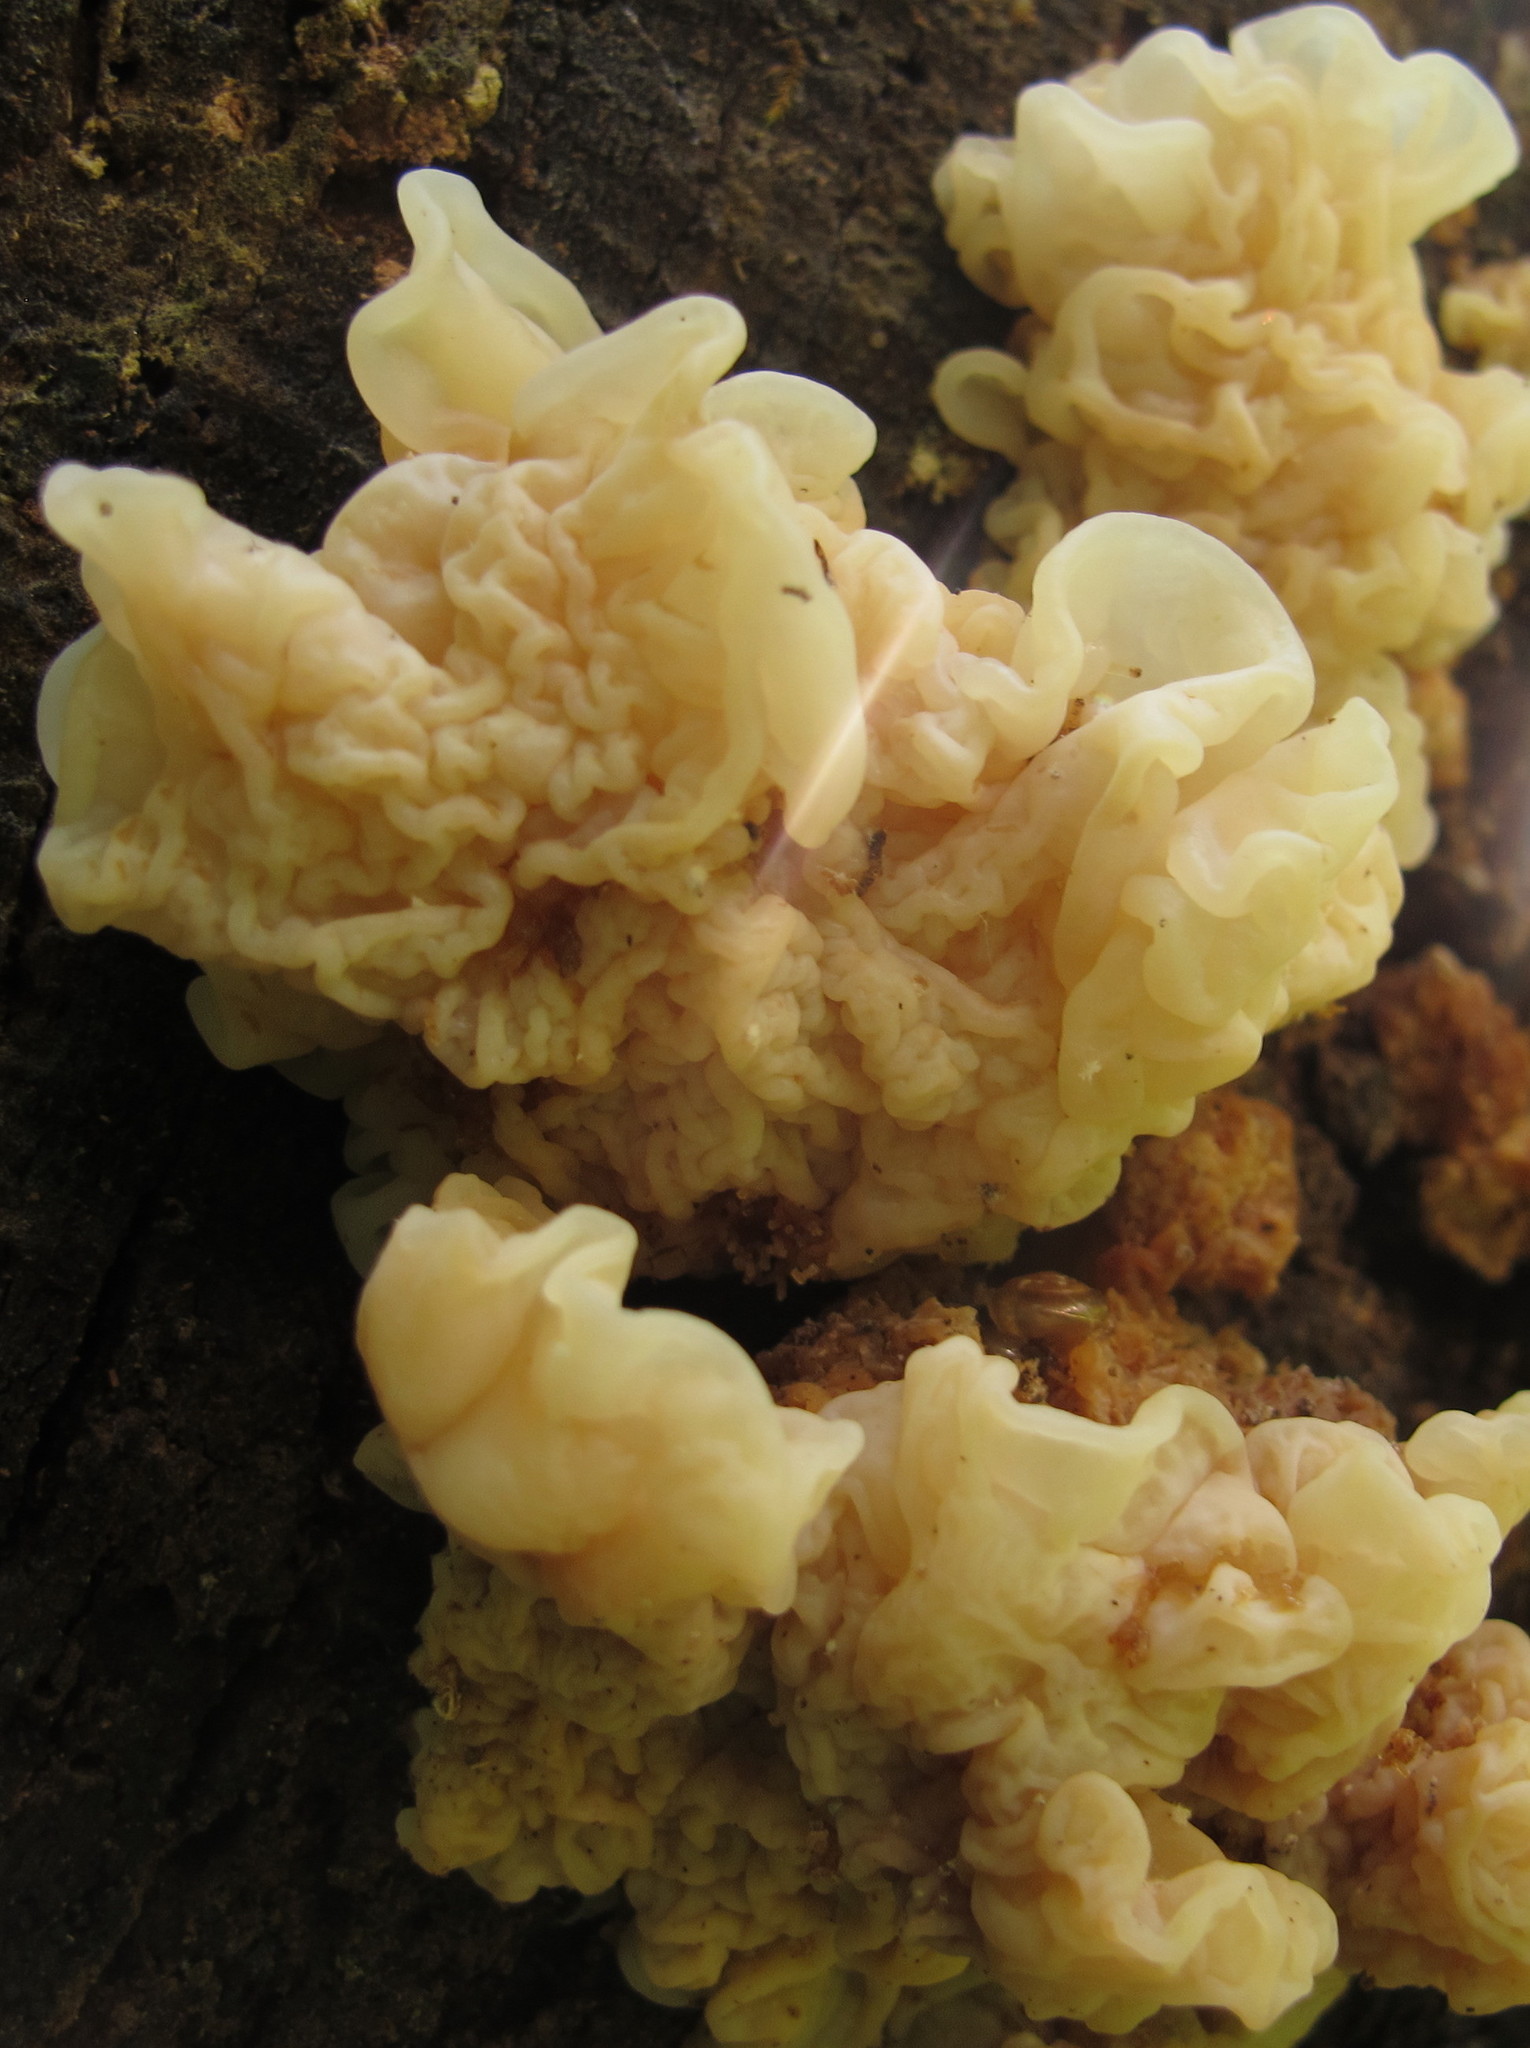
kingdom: Fungi
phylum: Basidiomycota
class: Agaricomycetes
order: Auriculariales
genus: Ductifera
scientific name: Ductifera pululahuana
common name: White jelly fungus
